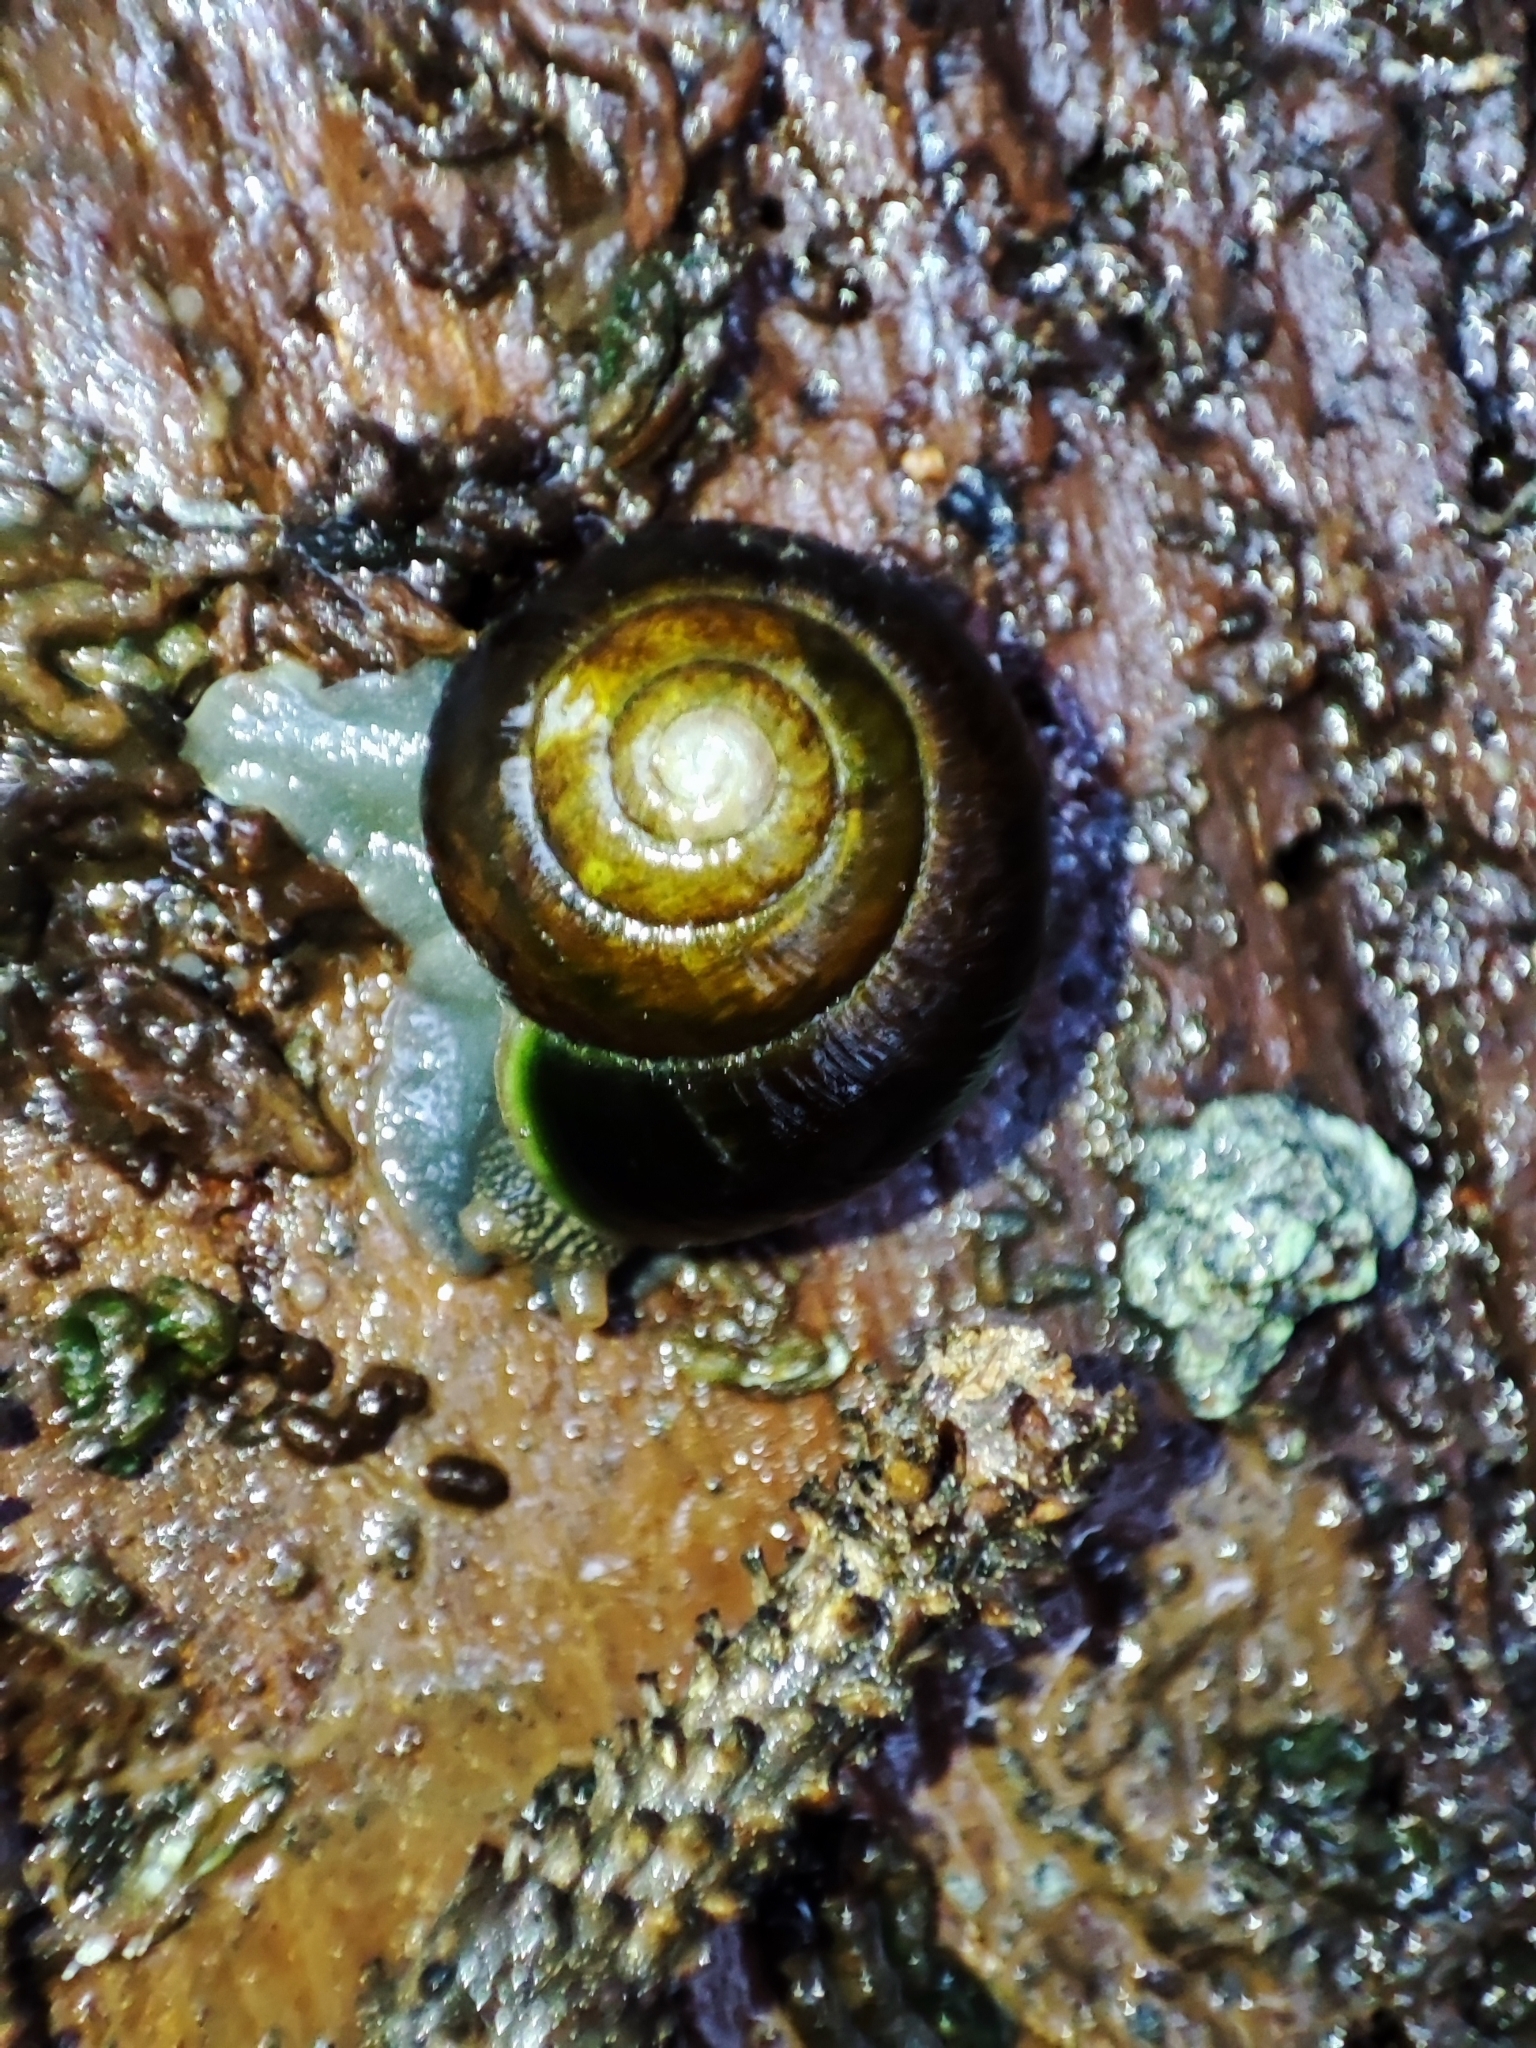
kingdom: Animalia
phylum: Mollusca
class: Gastropoda
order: Stylommatophora
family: Helicidae
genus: Arianta
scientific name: Arianta aethyops
